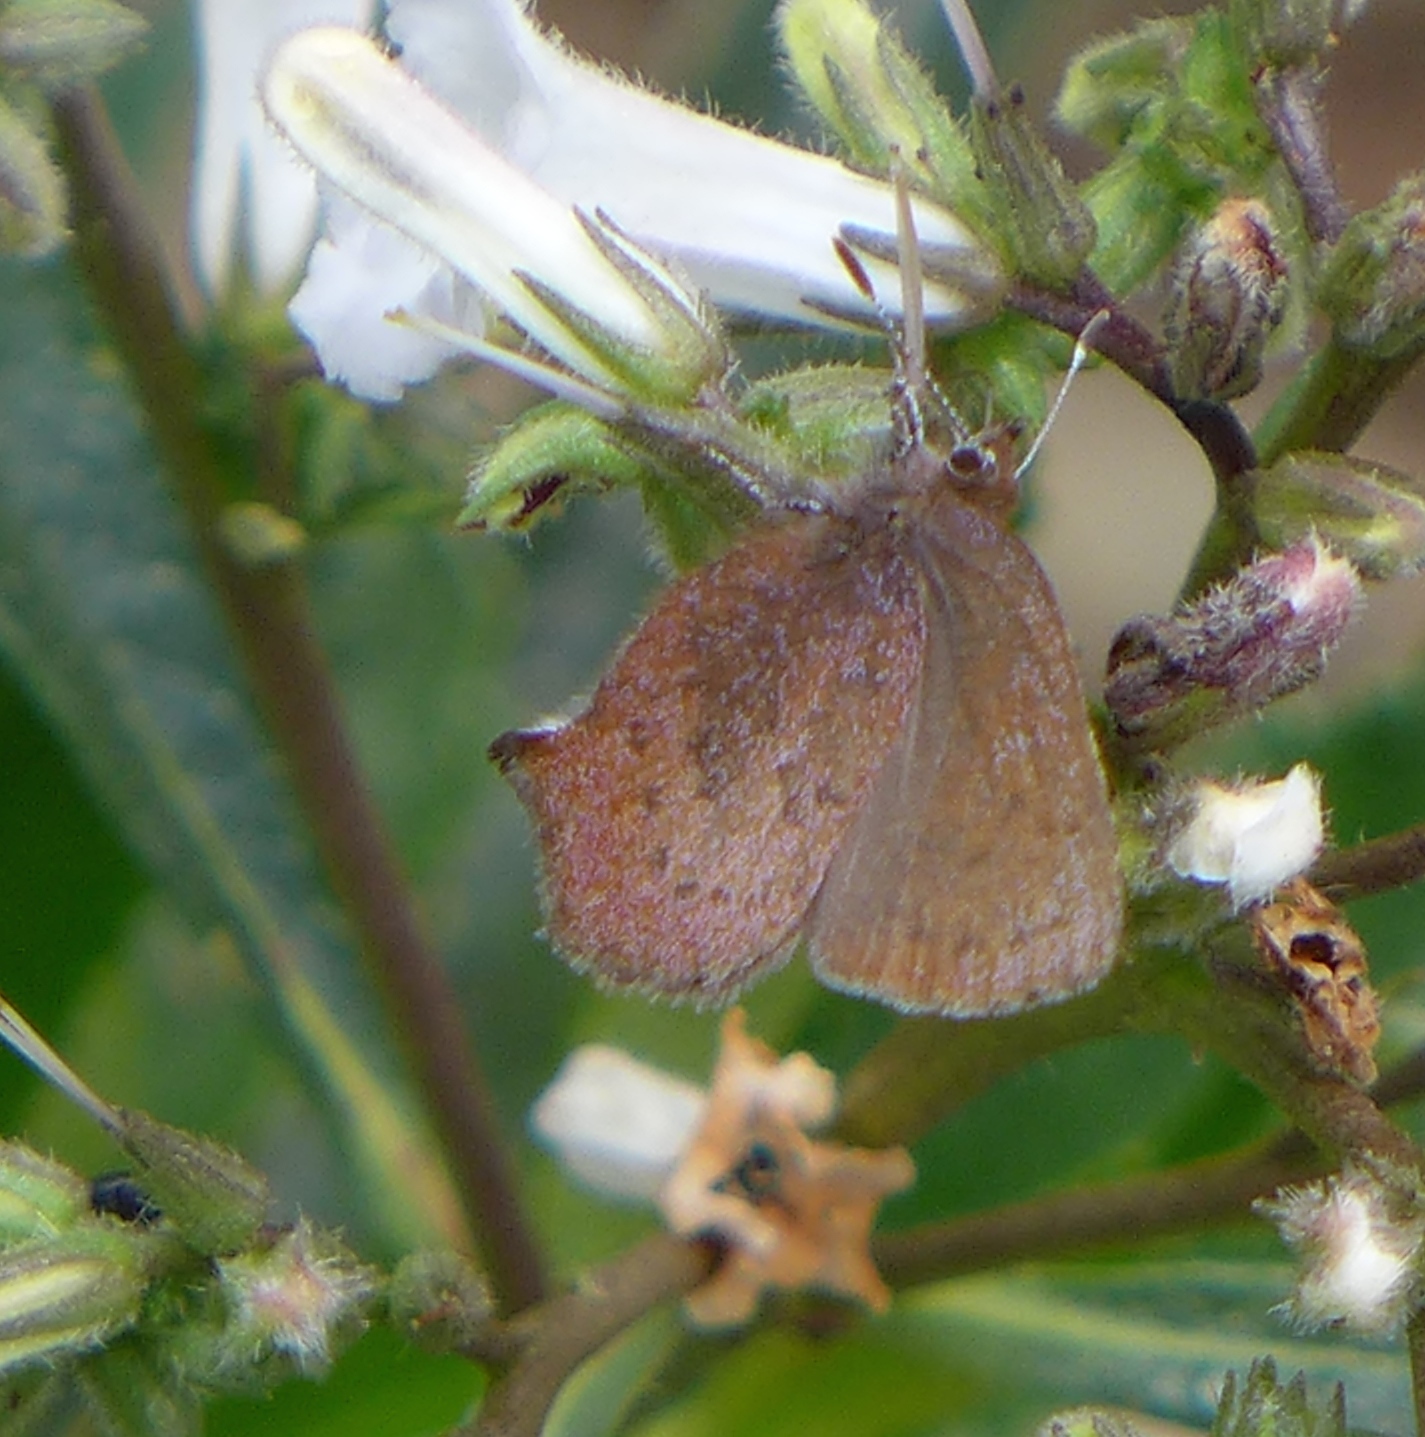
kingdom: Animalia
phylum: Arthropoda
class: Insecta
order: Lepidoptera
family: Lycaenidae
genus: Incisalia
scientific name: Incisalia irioides
